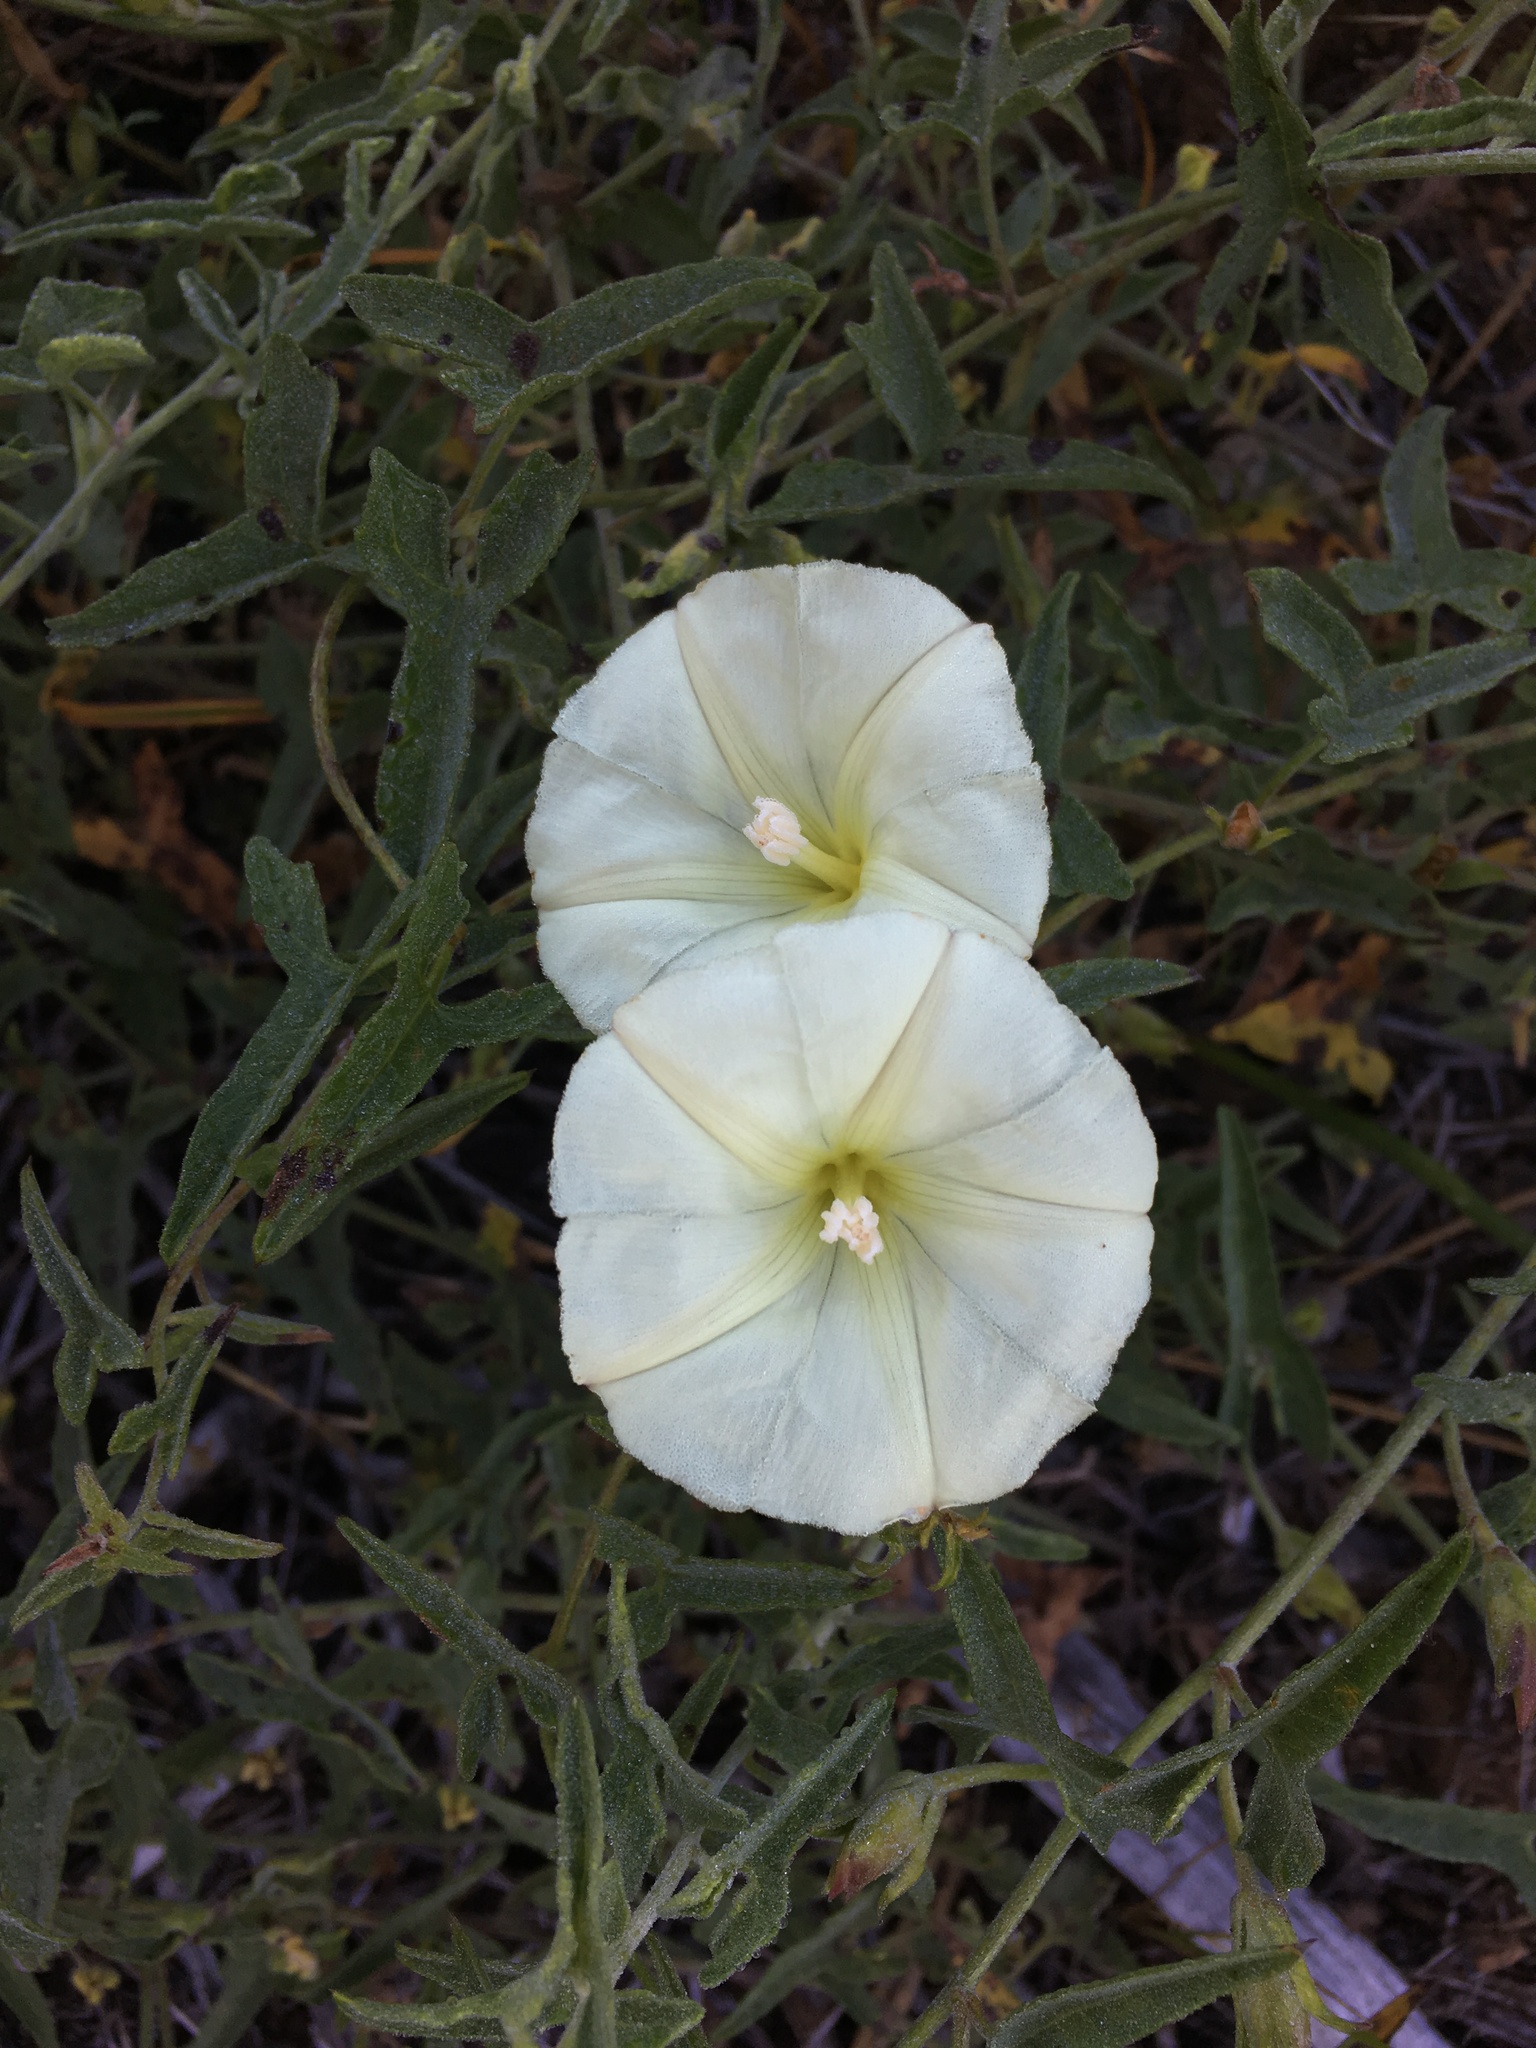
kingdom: Plantae
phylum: Tracheophyta
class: Magnoliopsida
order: Solanales
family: Convolvulaceae
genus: Calystegia
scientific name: Calystegia vanzuukiae
